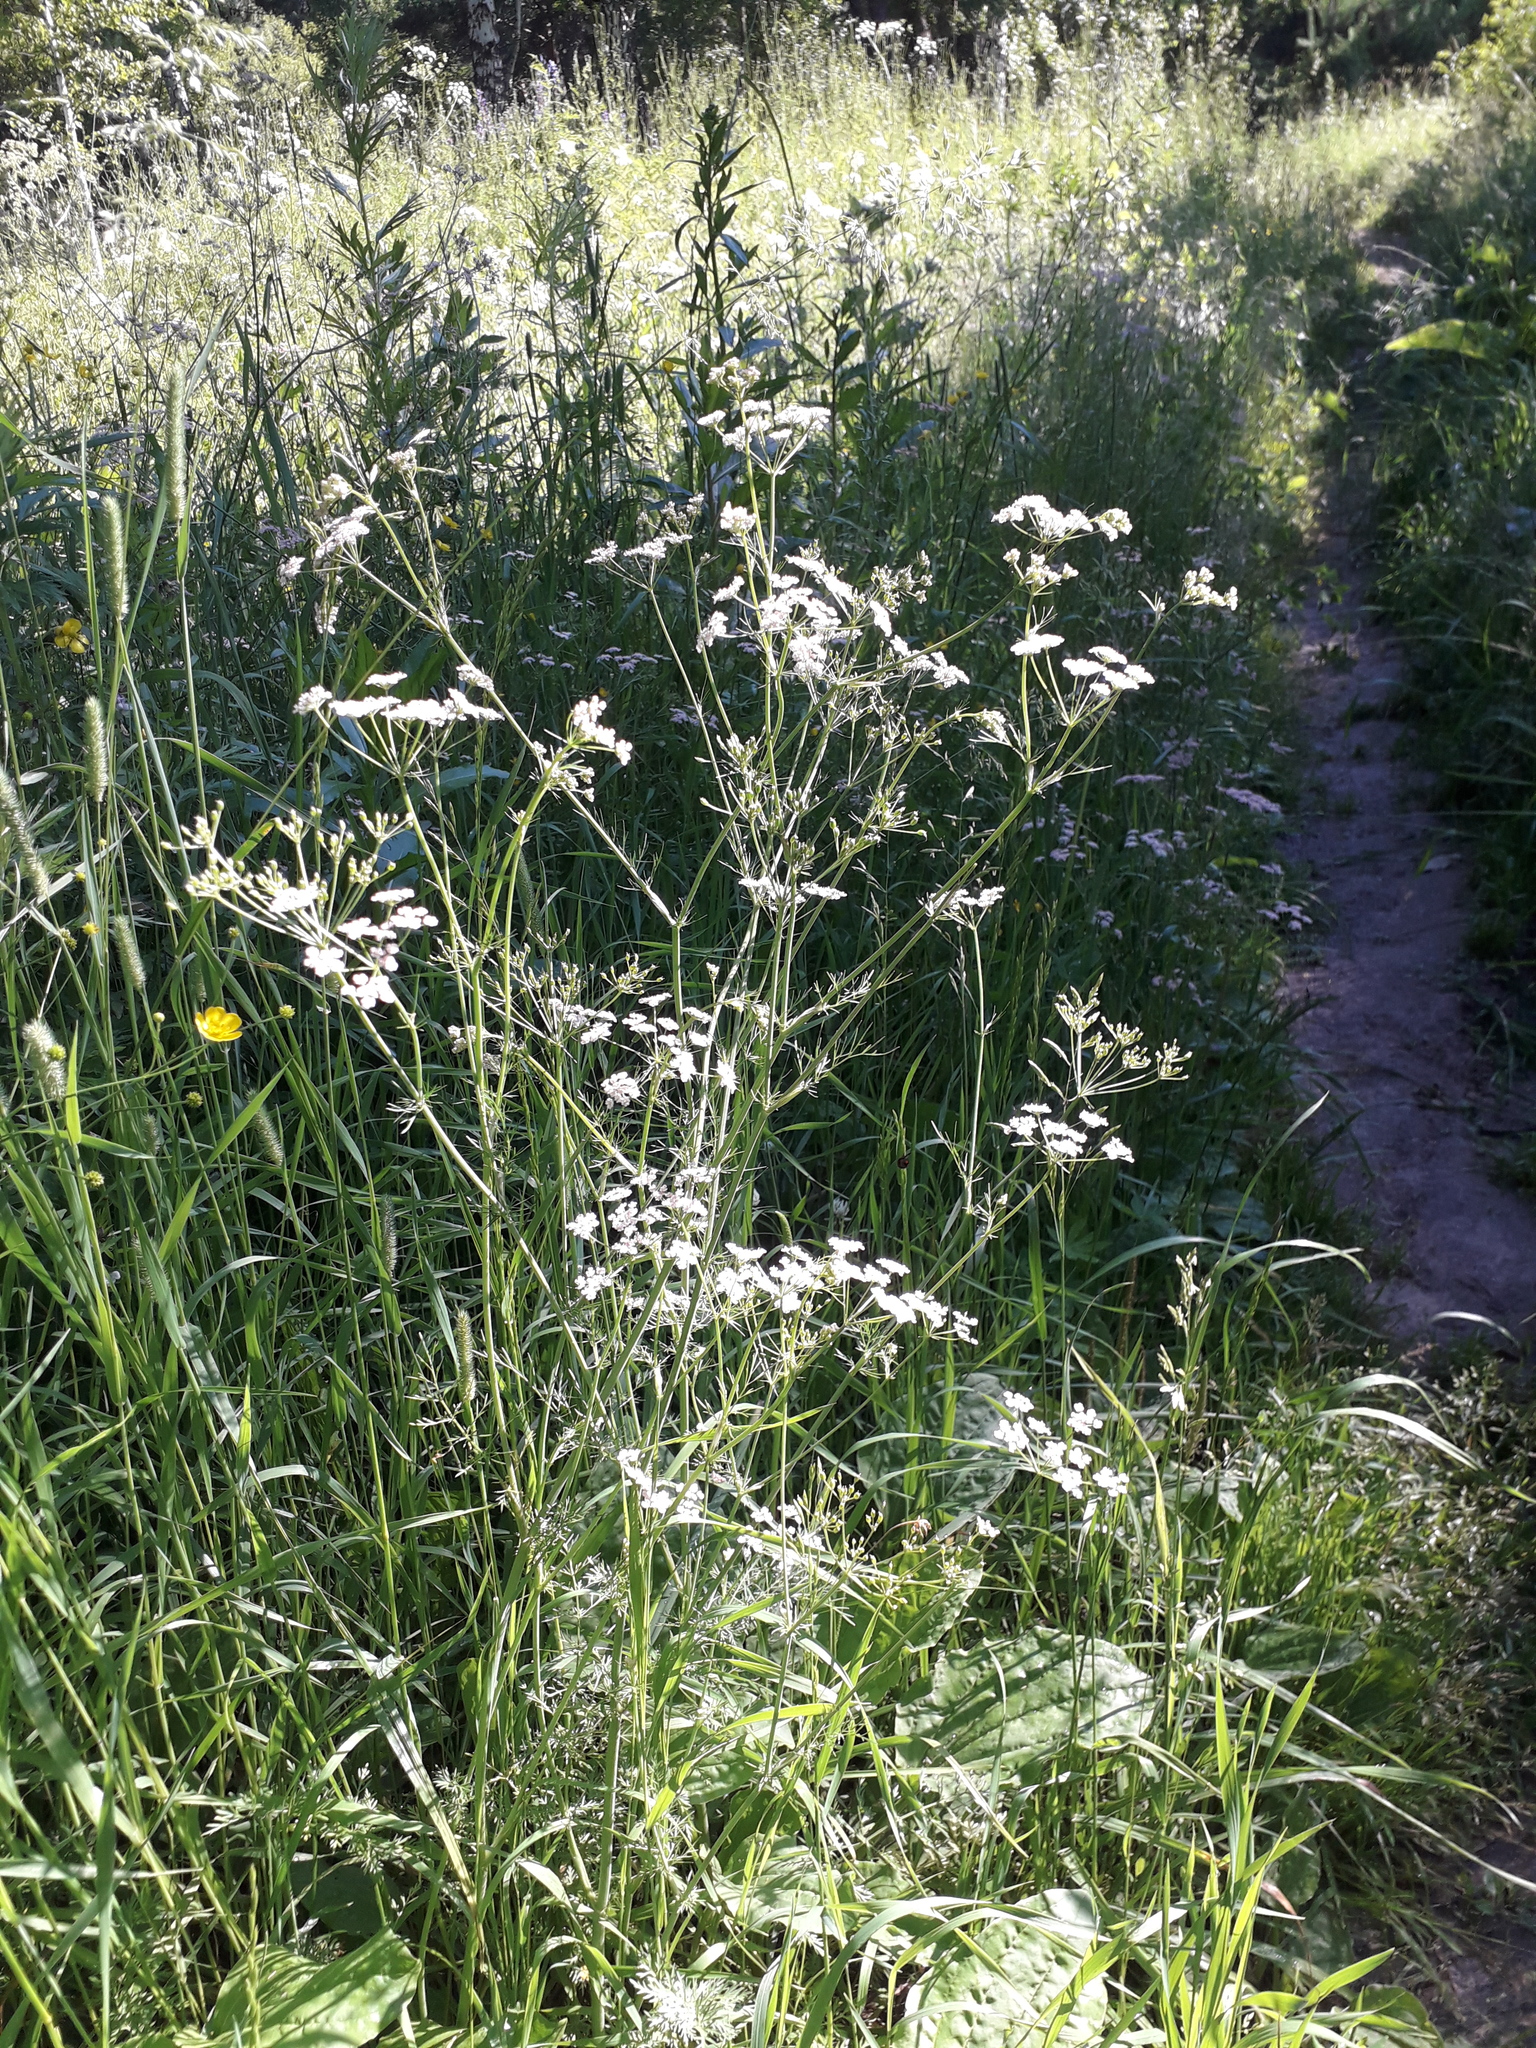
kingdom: Plantae
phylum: Tracheophyta
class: Magnoliopsida
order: Apiales
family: Apiaceae
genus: Carum
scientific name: Carum carvi
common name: Caraway
